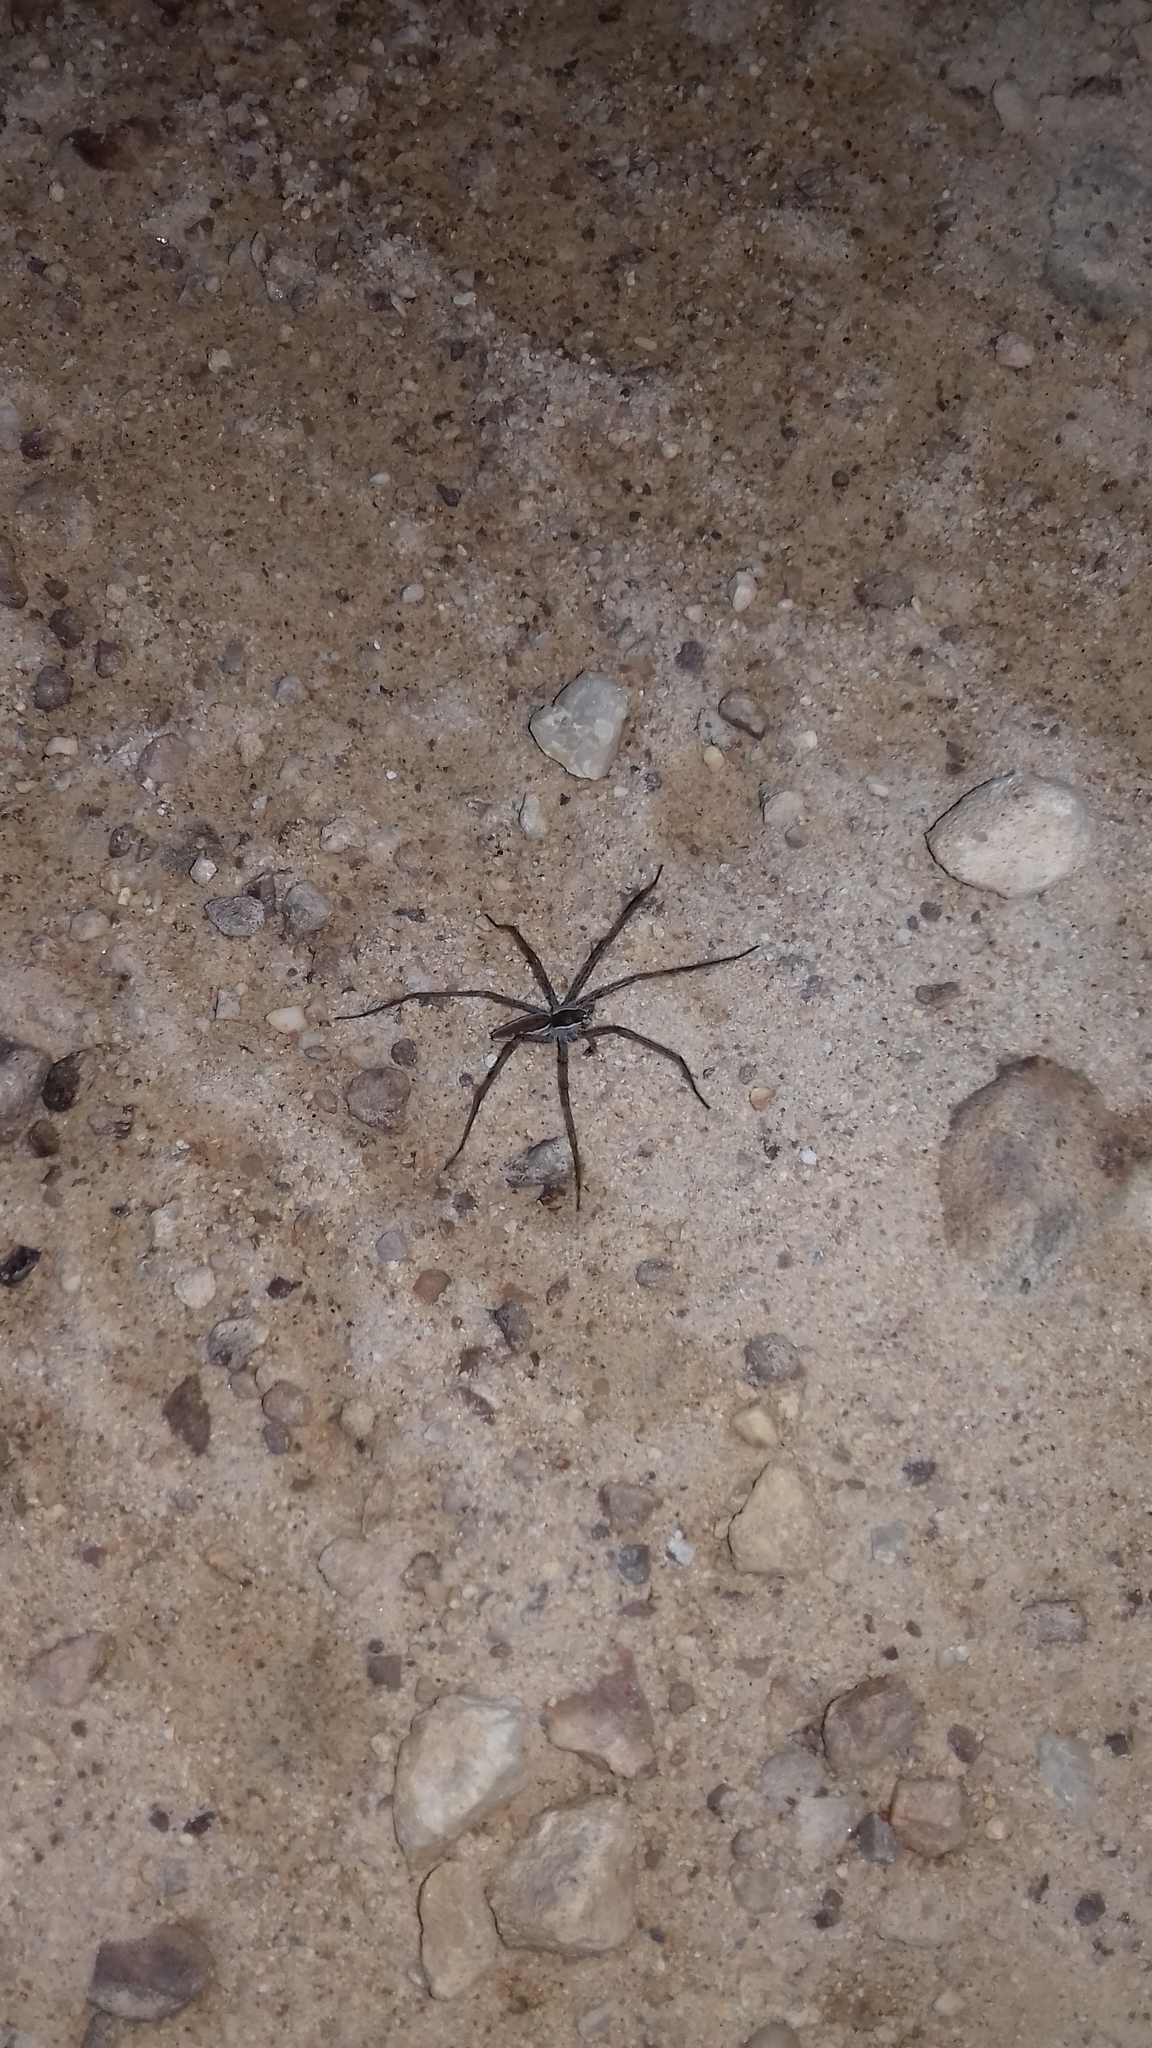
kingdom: Animalia
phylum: Arthropoda
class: Arachnida
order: Araneae
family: Pisauridae
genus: Euprosthenopsis
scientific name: Euprosthenopsis pulchella
